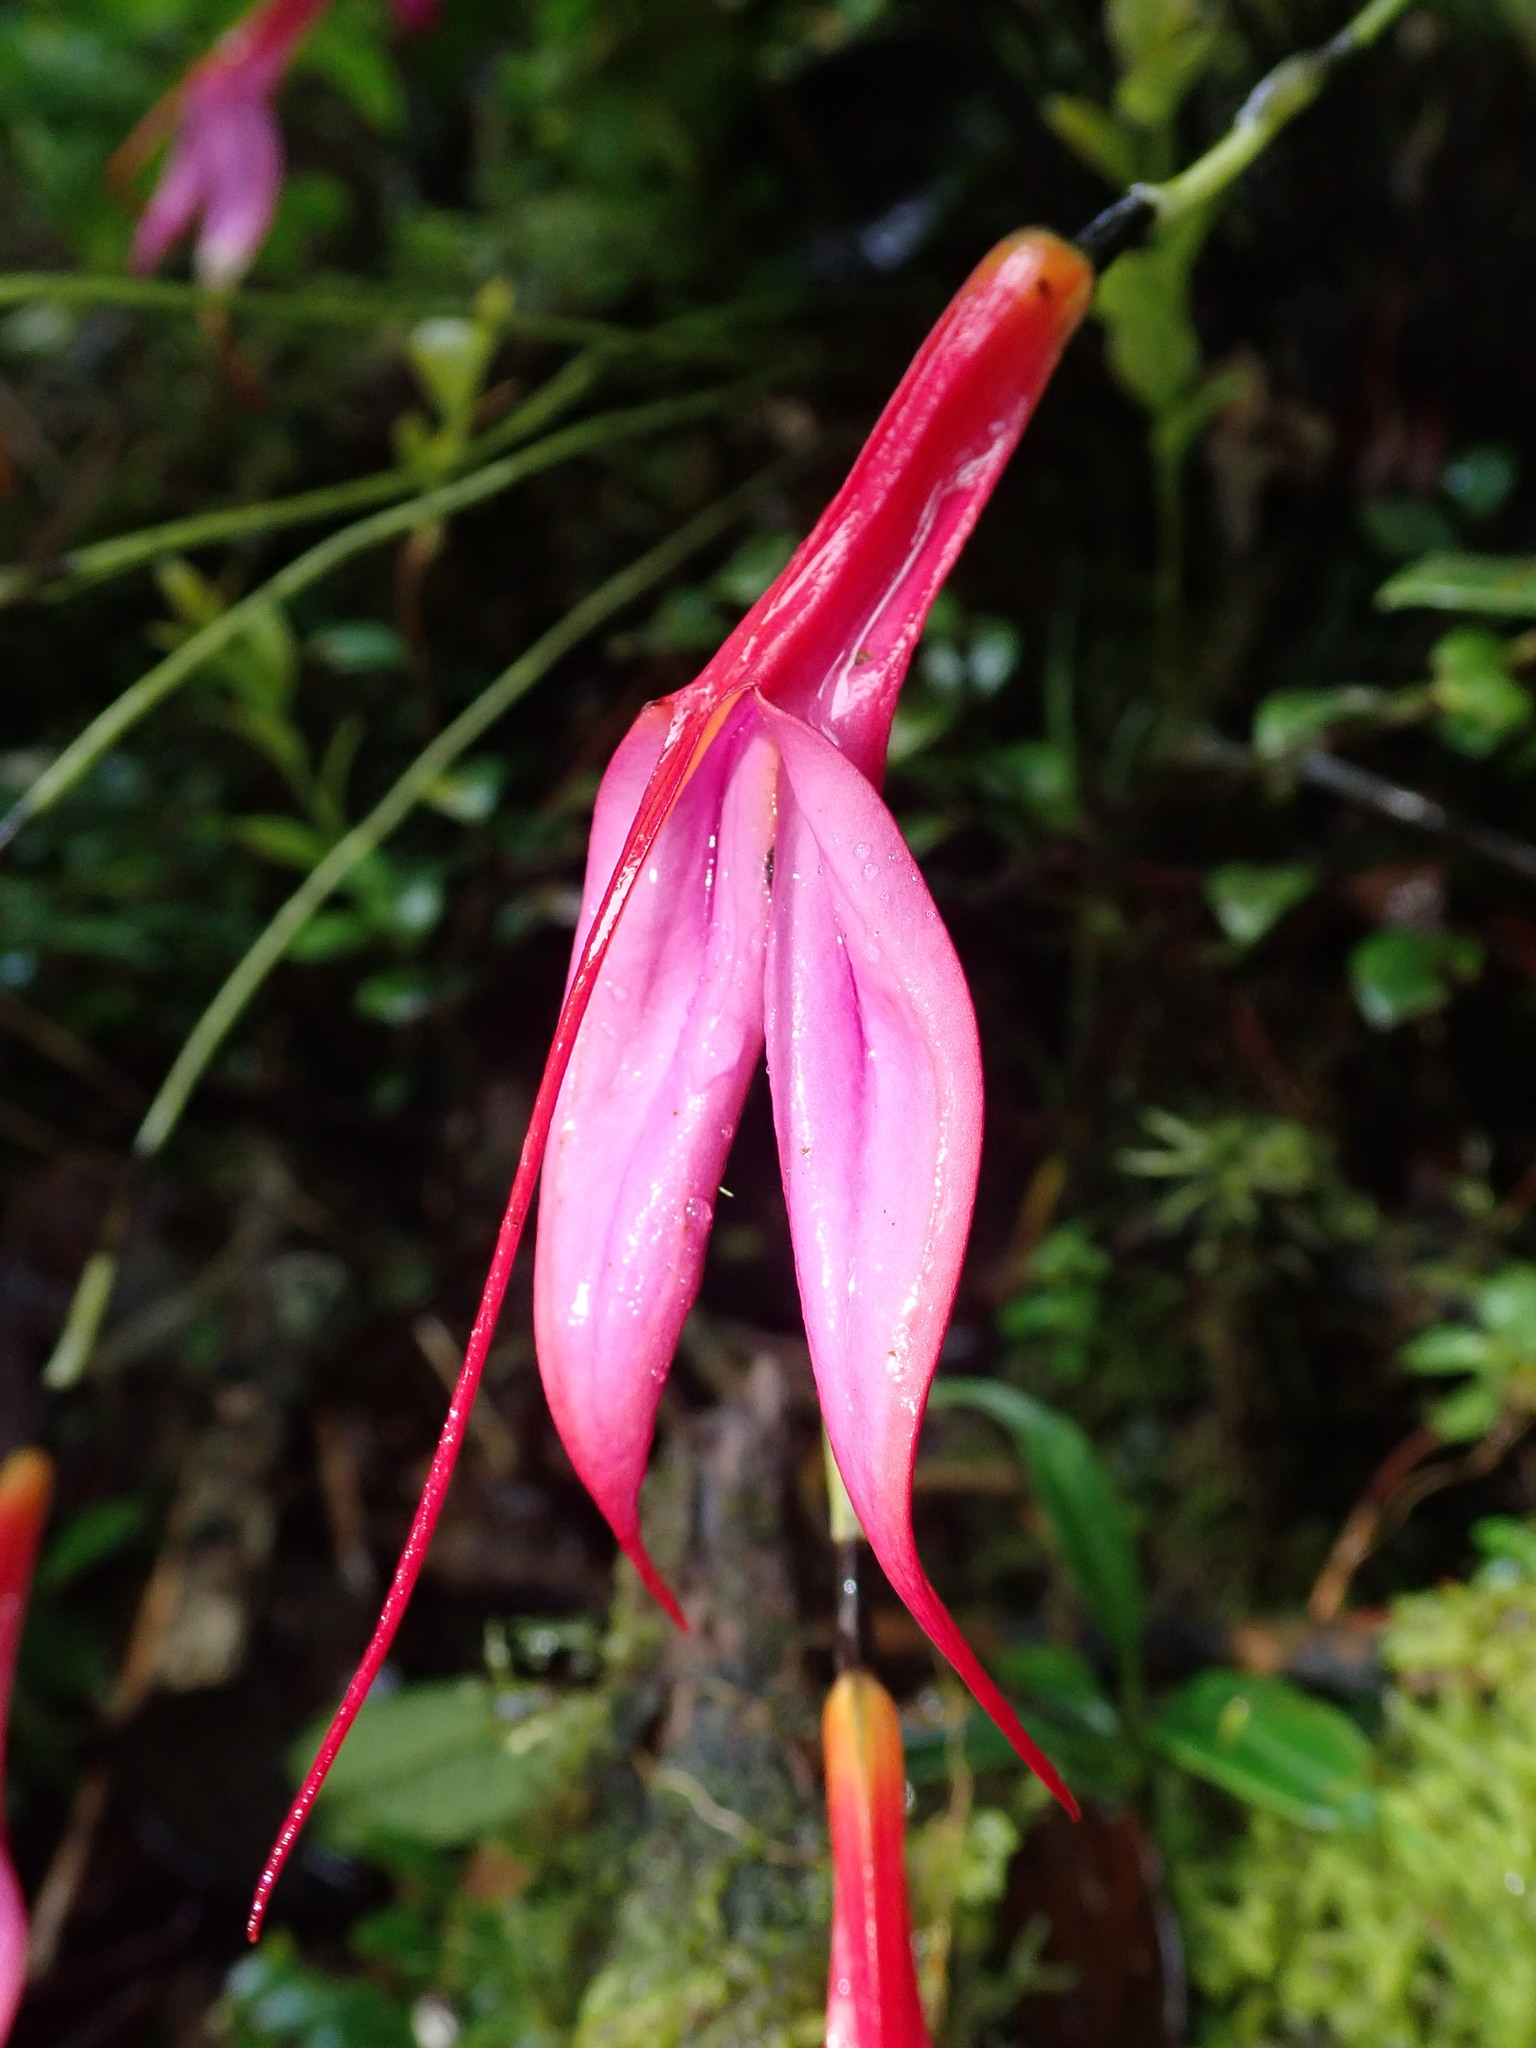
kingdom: Plantae
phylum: Tracheophyta
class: Liliopsida
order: Asparagales
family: Orchidaceae
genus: Masdevallia
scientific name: Masdevallia rosea
